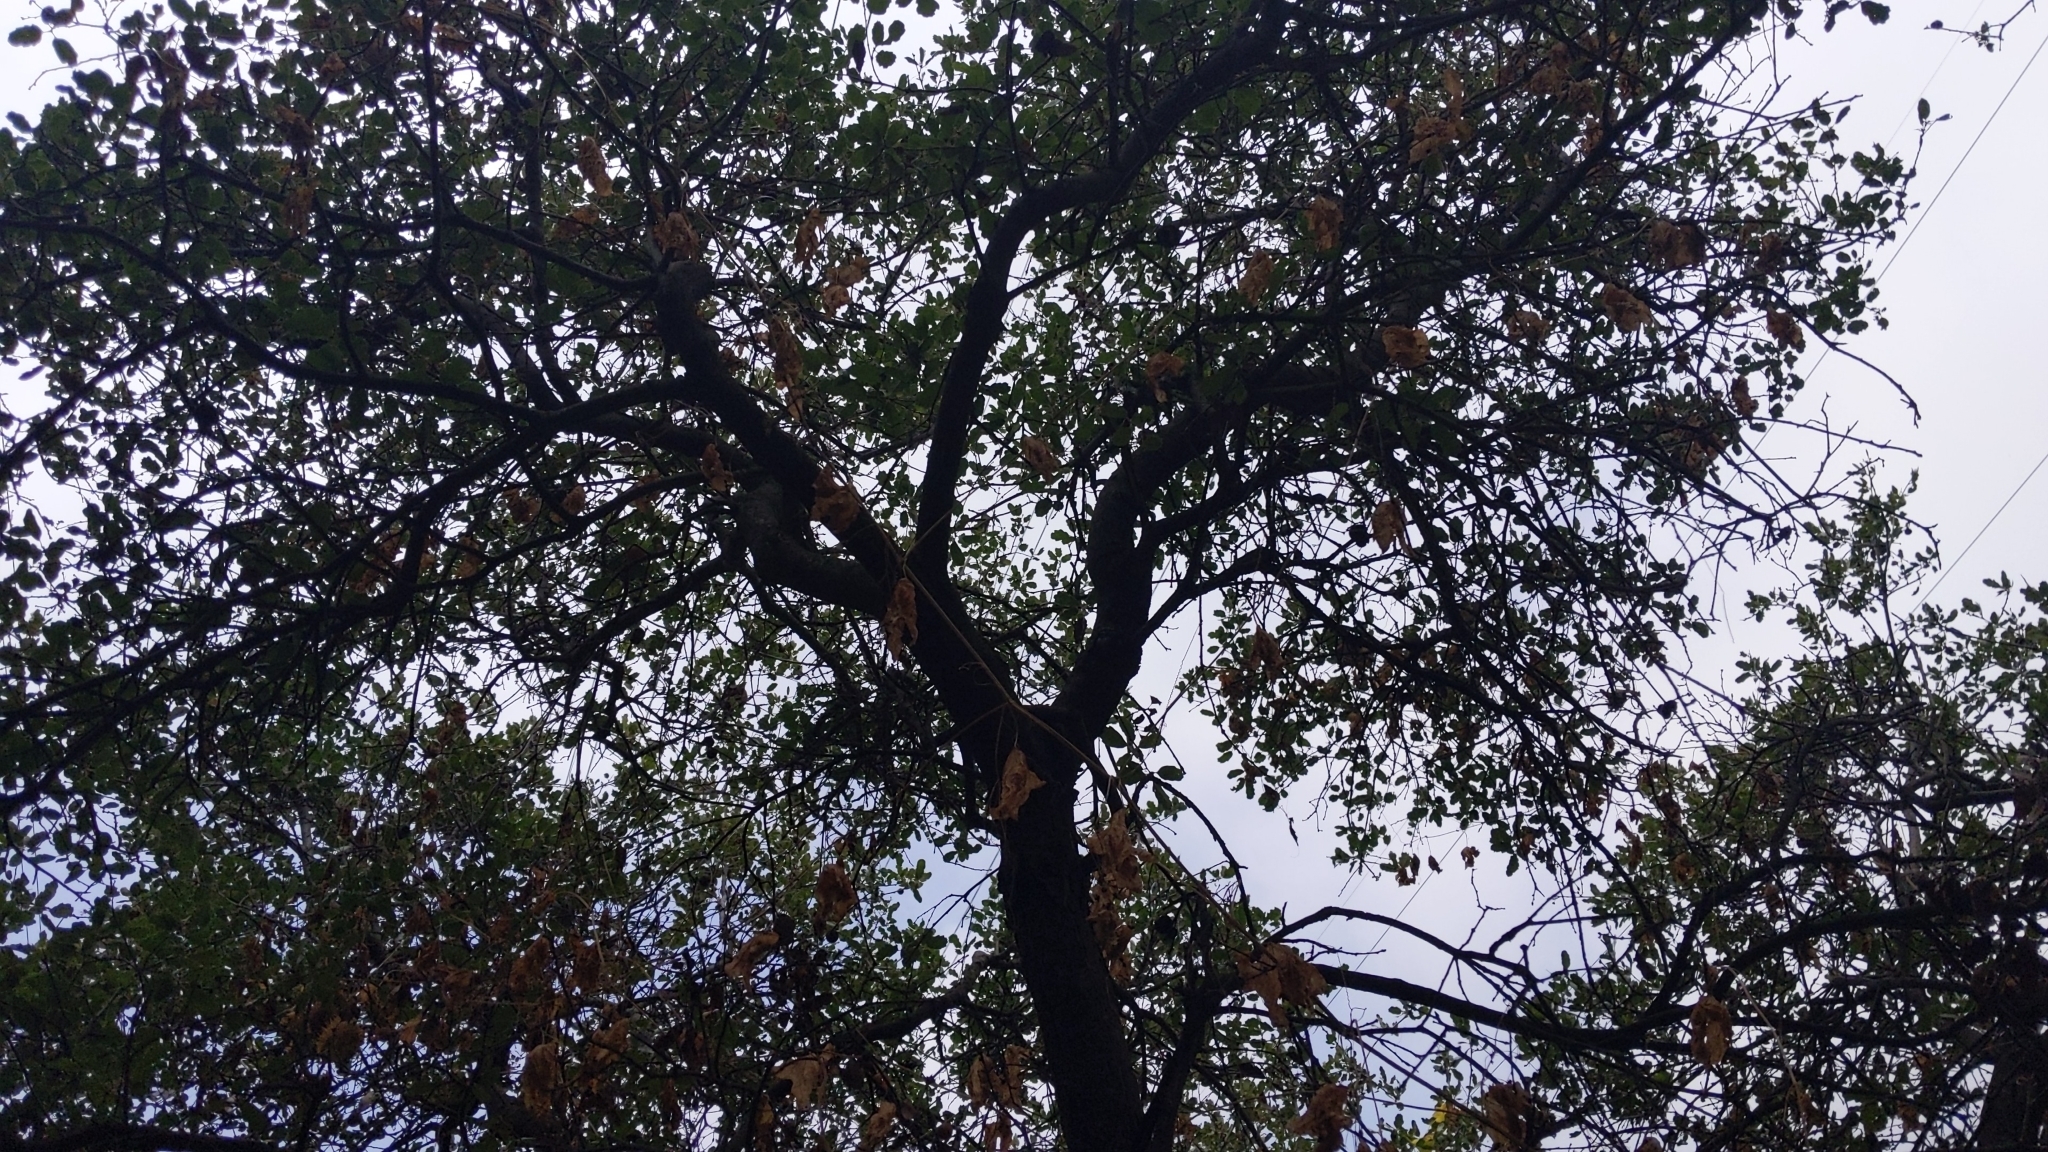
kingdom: Plantae
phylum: Tracheophyta
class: Magnoliopsida
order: Fagales
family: Fagaceae
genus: Quercus
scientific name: Quercus
